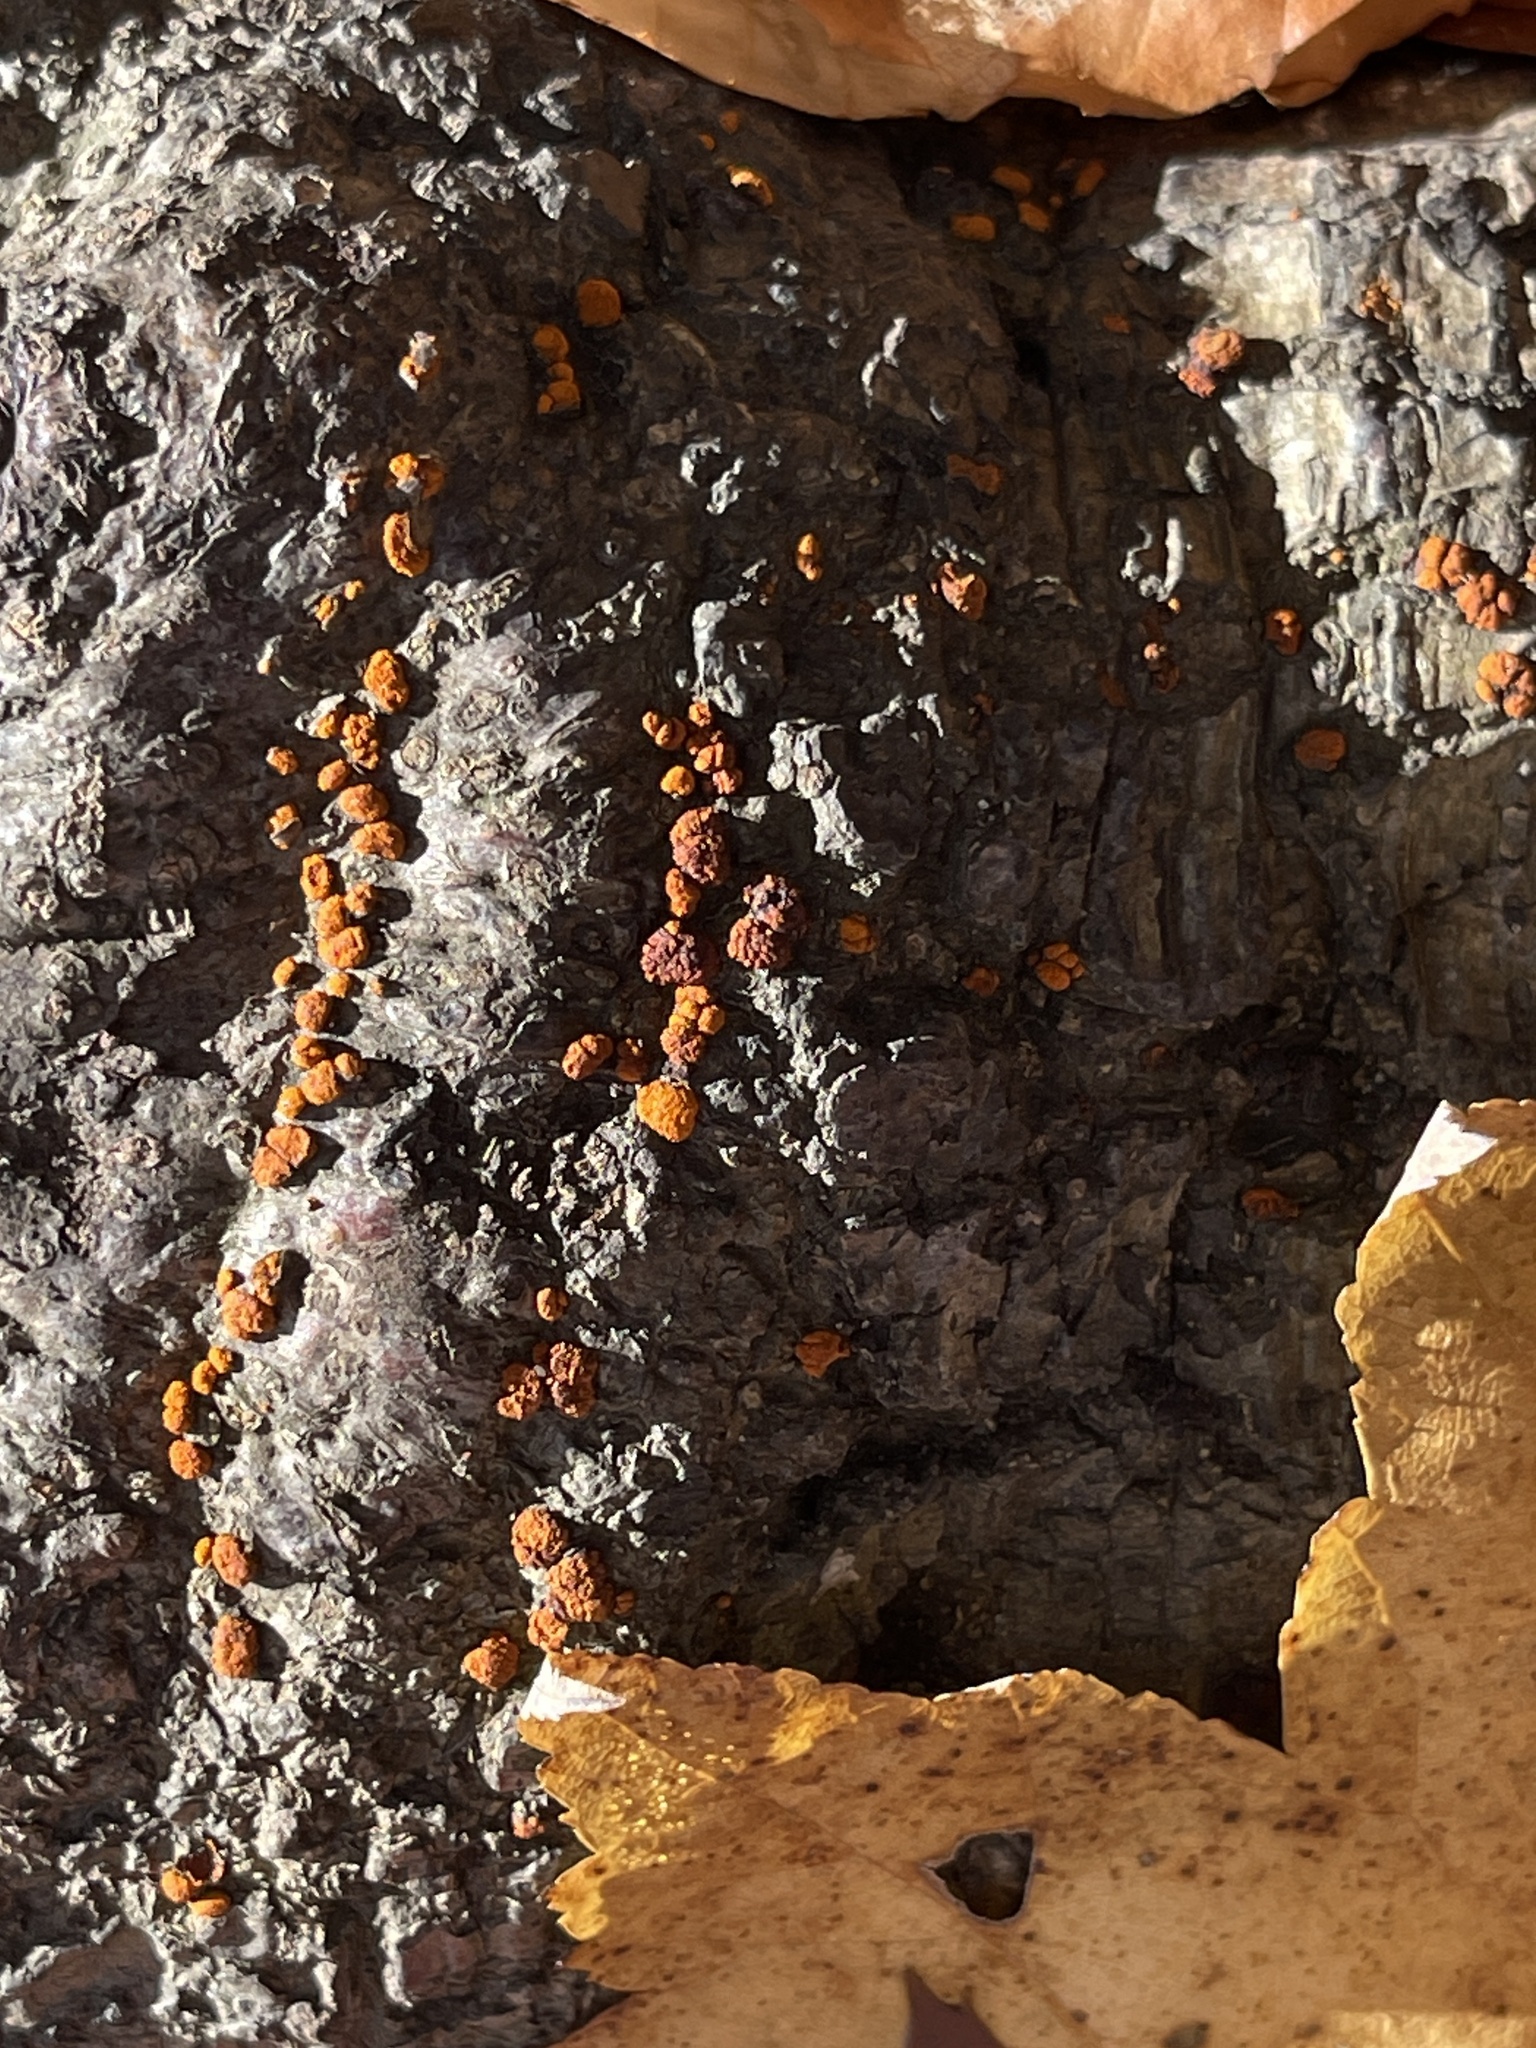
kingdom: Fungi
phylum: Ascomycota
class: Sordariomycetes
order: Diaporthales
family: Cryphonectriaceae
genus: Amphilogia
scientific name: Amphilogia gyrosa
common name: Orange hobnail canker
